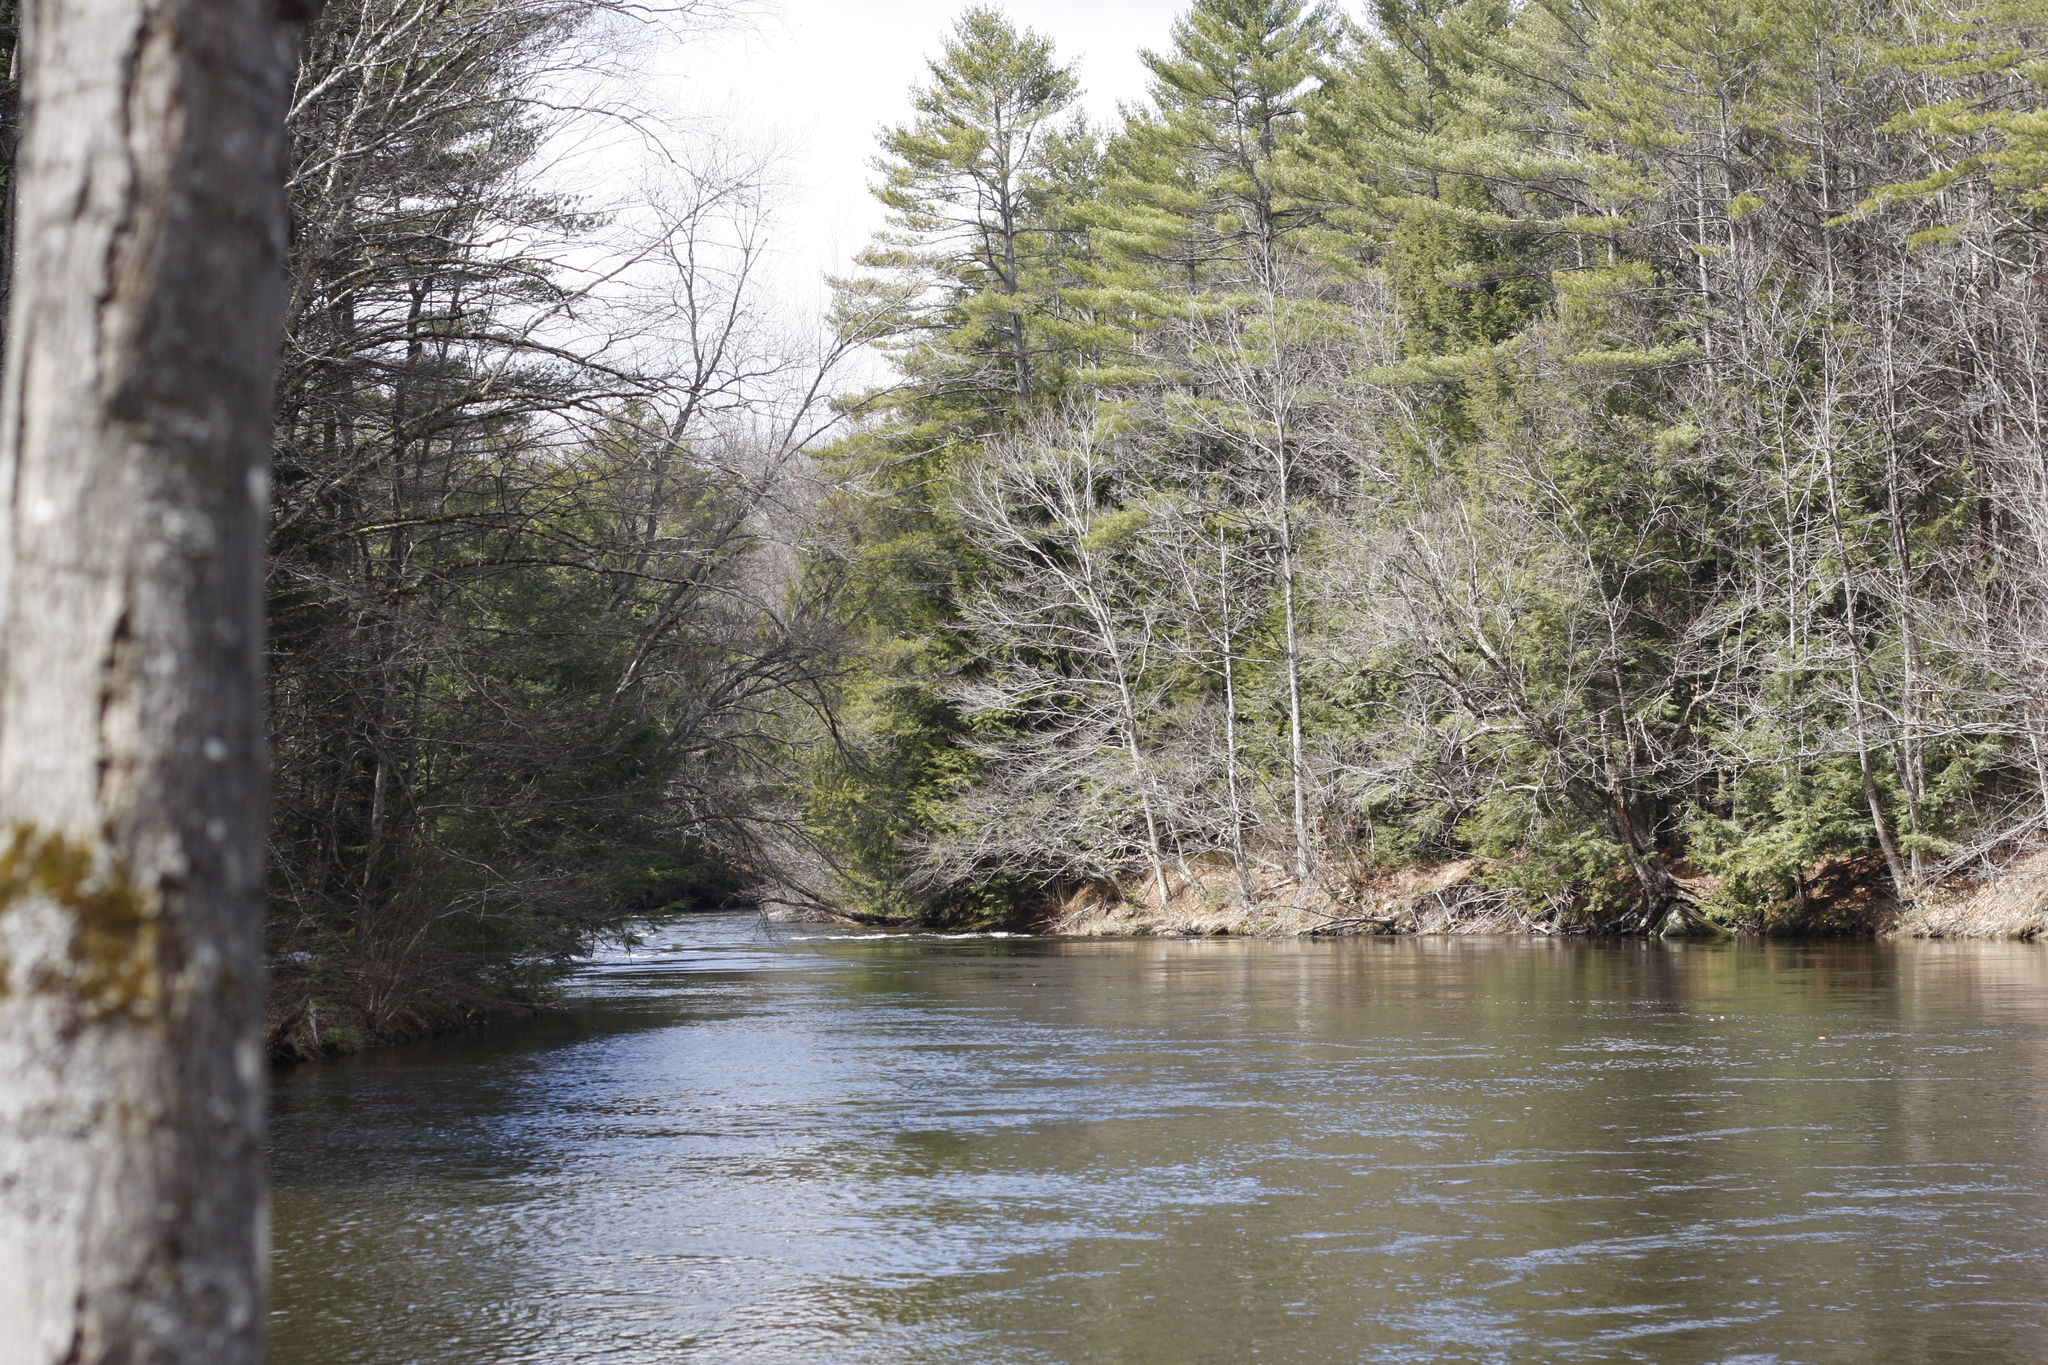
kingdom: Plantae
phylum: Tracheophyta
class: Pinopsida
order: Pinales
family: Pinaceae
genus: Pinus
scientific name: Pinus strobus
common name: Weymouth pine
